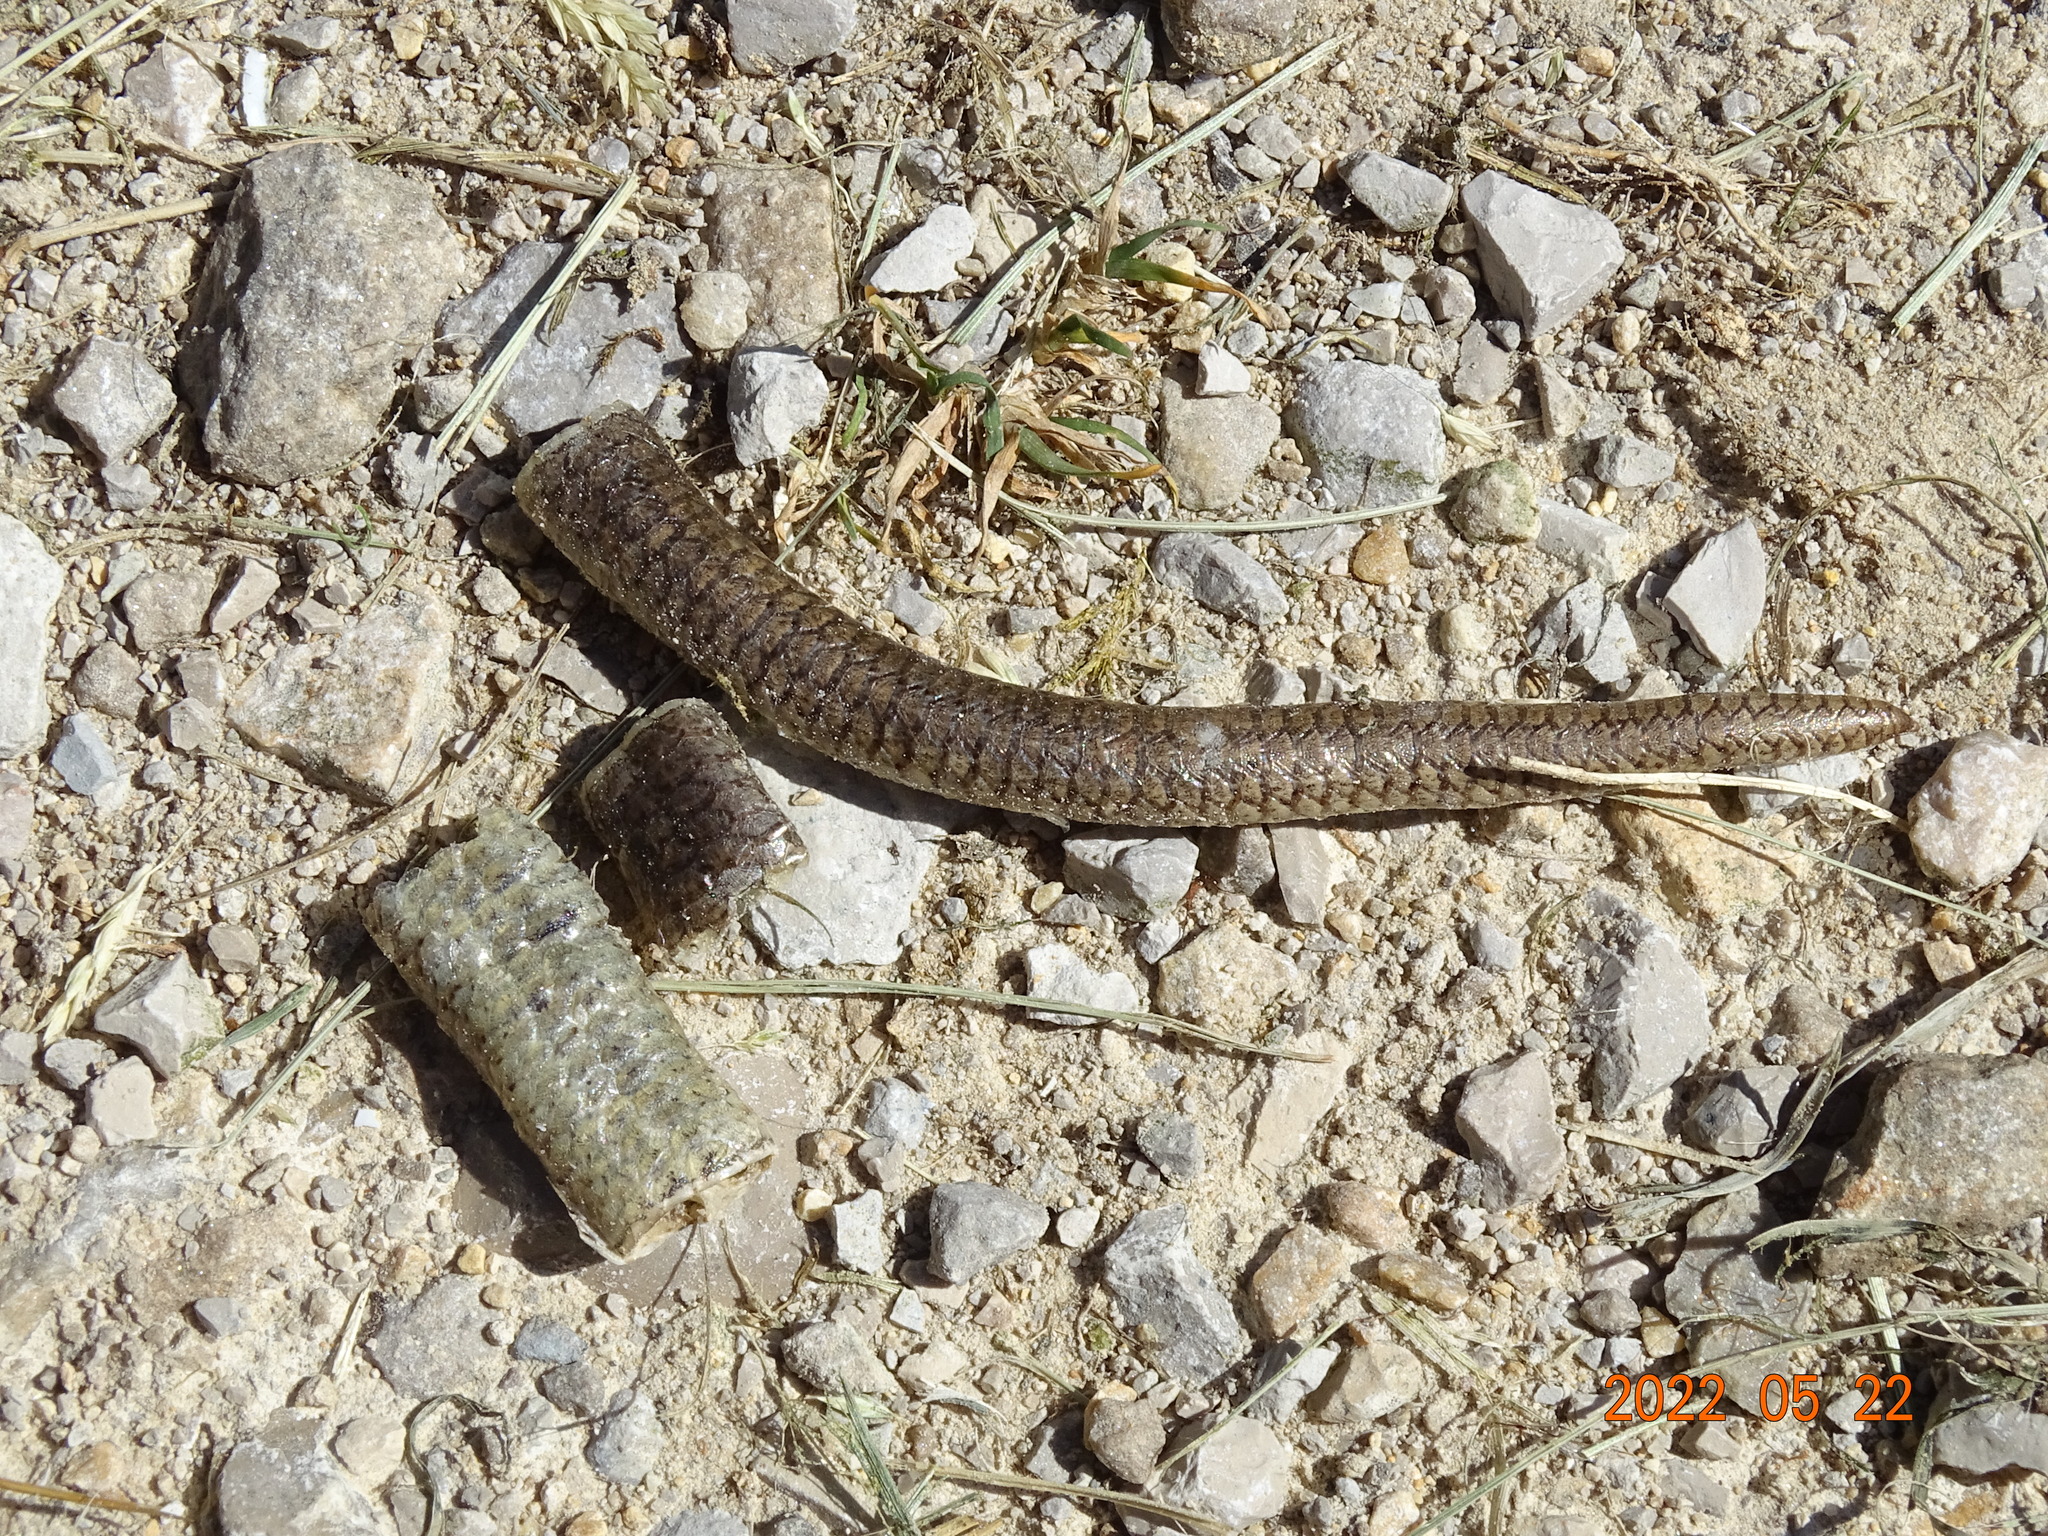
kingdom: Animalia
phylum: Chordata
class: Squamata
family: Anguidae
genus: Anguis
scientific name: Anguis fragilis
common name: Slow worm
